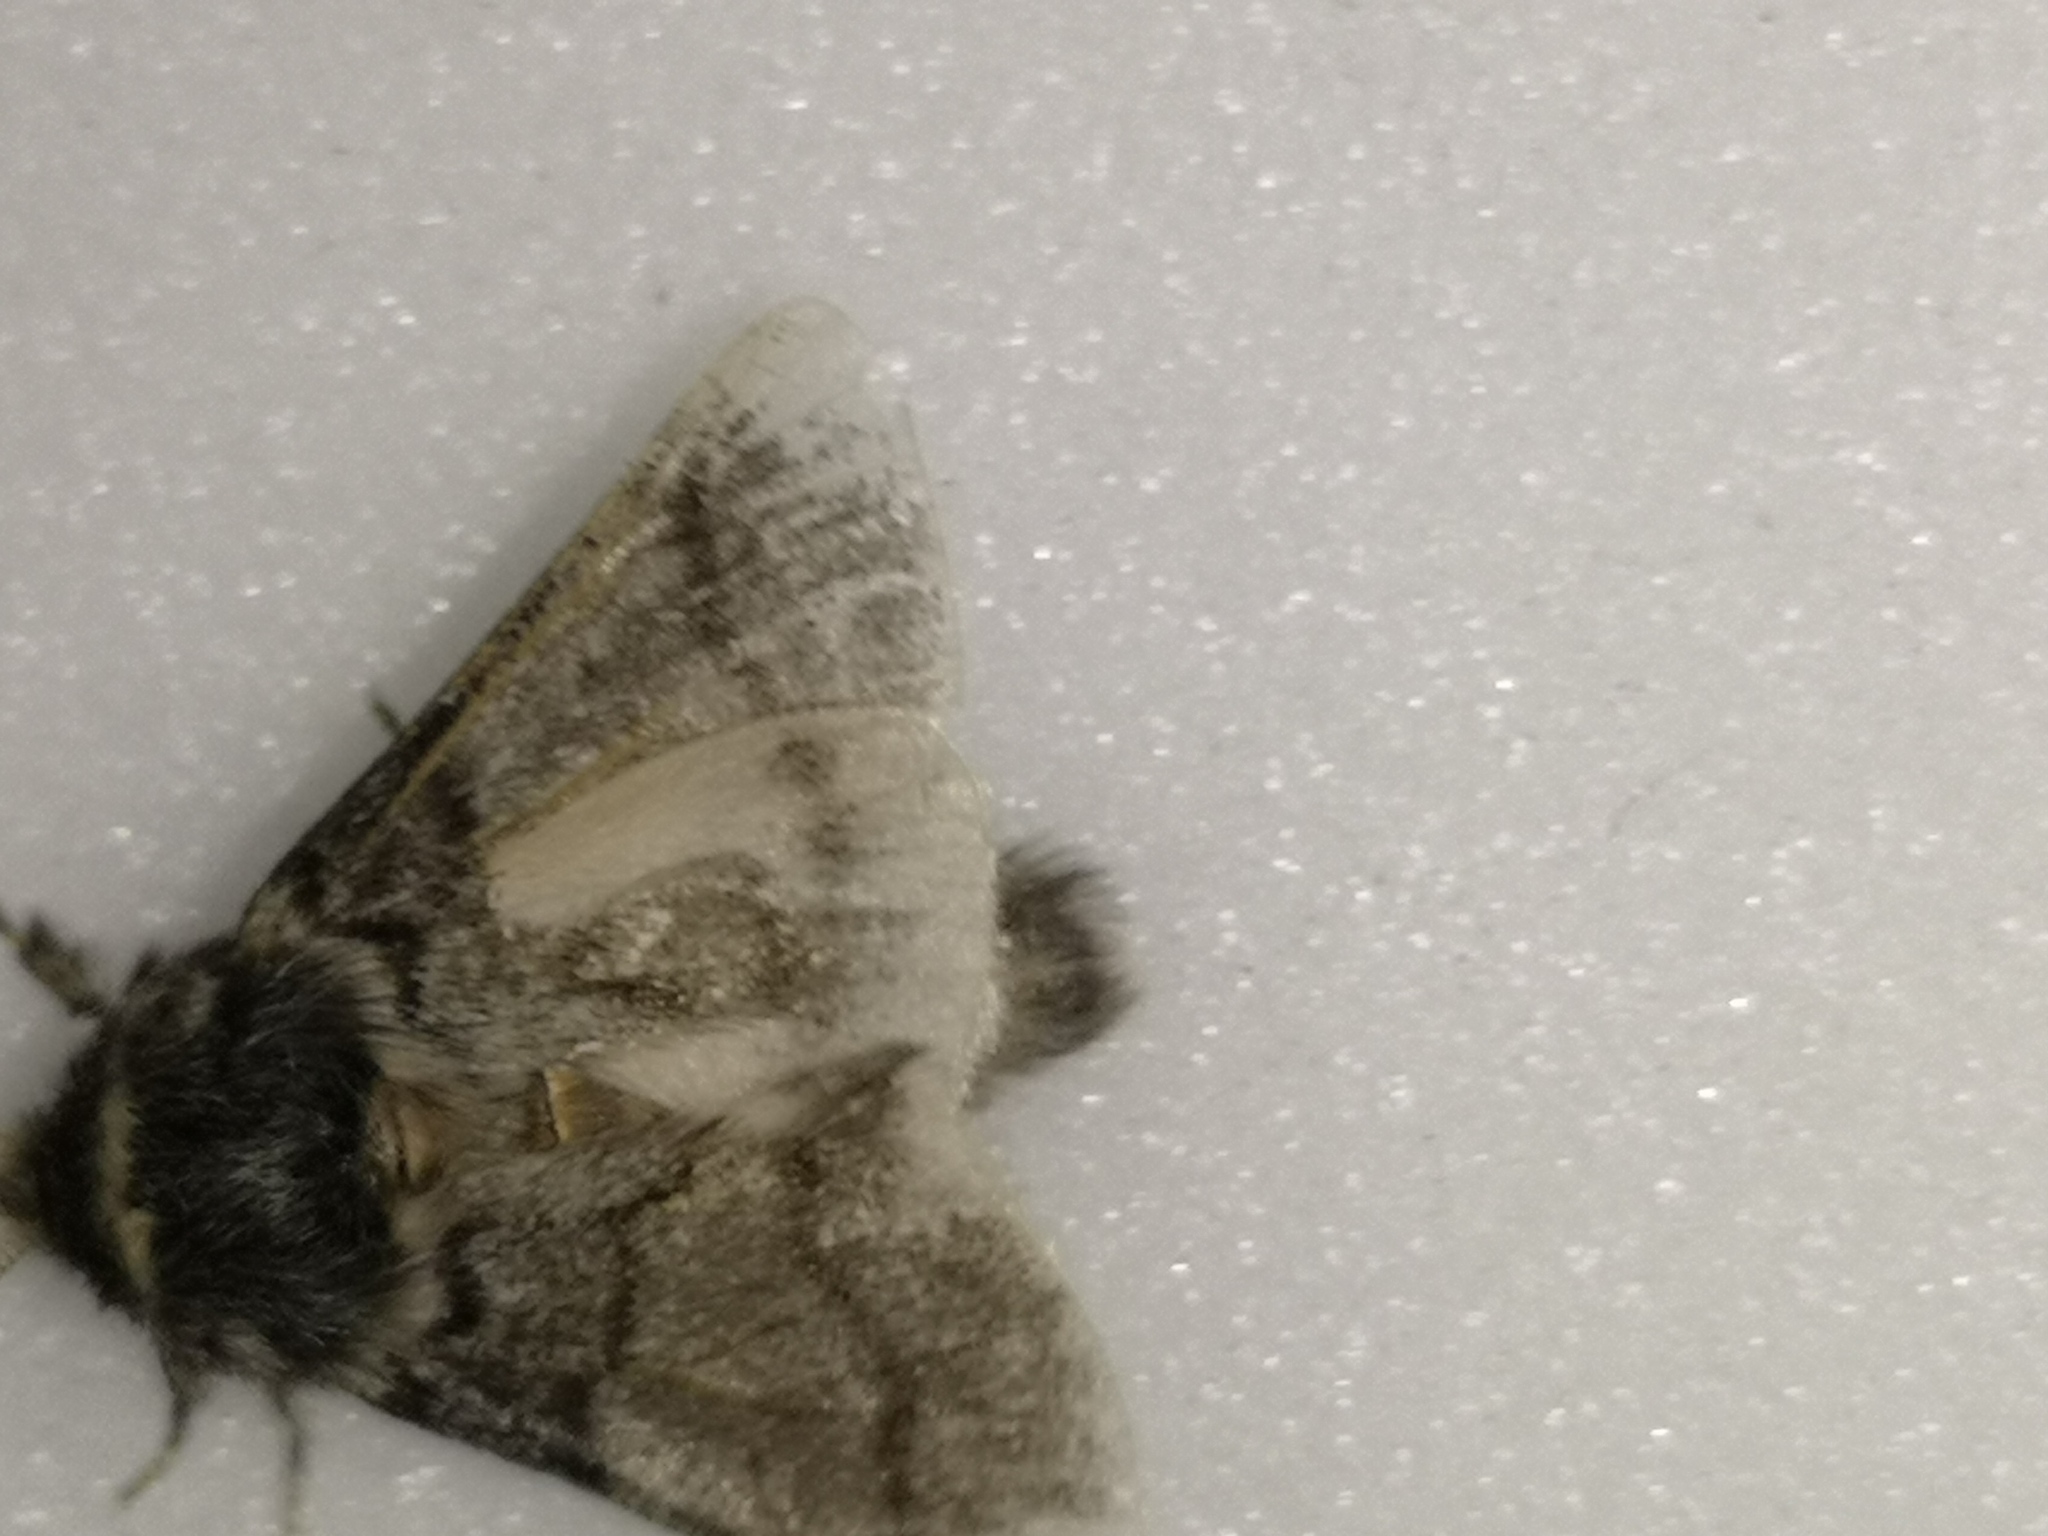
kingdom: Animalia
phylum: Arthropoda
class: Insecta
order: Lepidoptera
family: Notodontidae
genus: Thaumetopoea
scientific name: Thaumetopoea processionea
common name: Oak processionea
